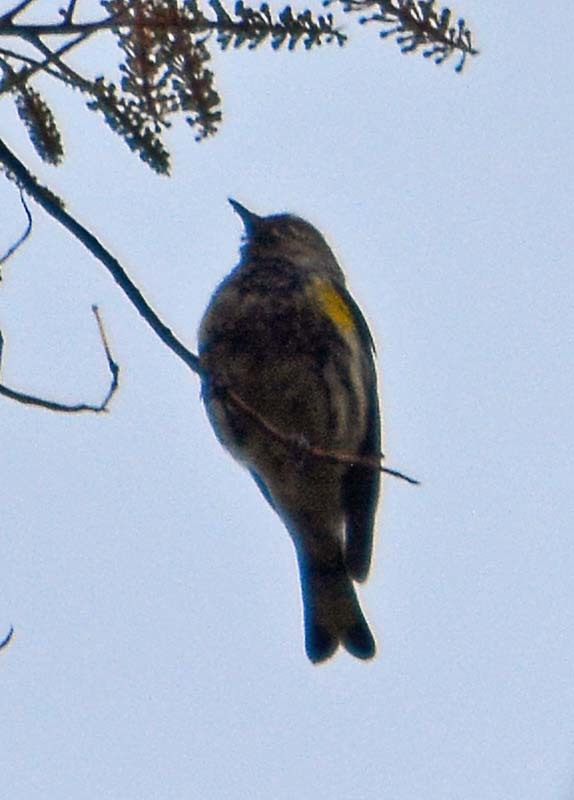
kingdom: Animalia
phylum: Chordata
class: Aves
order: Passeriformes
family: Parulidae
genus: Setophaga
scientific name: Setophaga coronata
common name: Myrtle warbler
